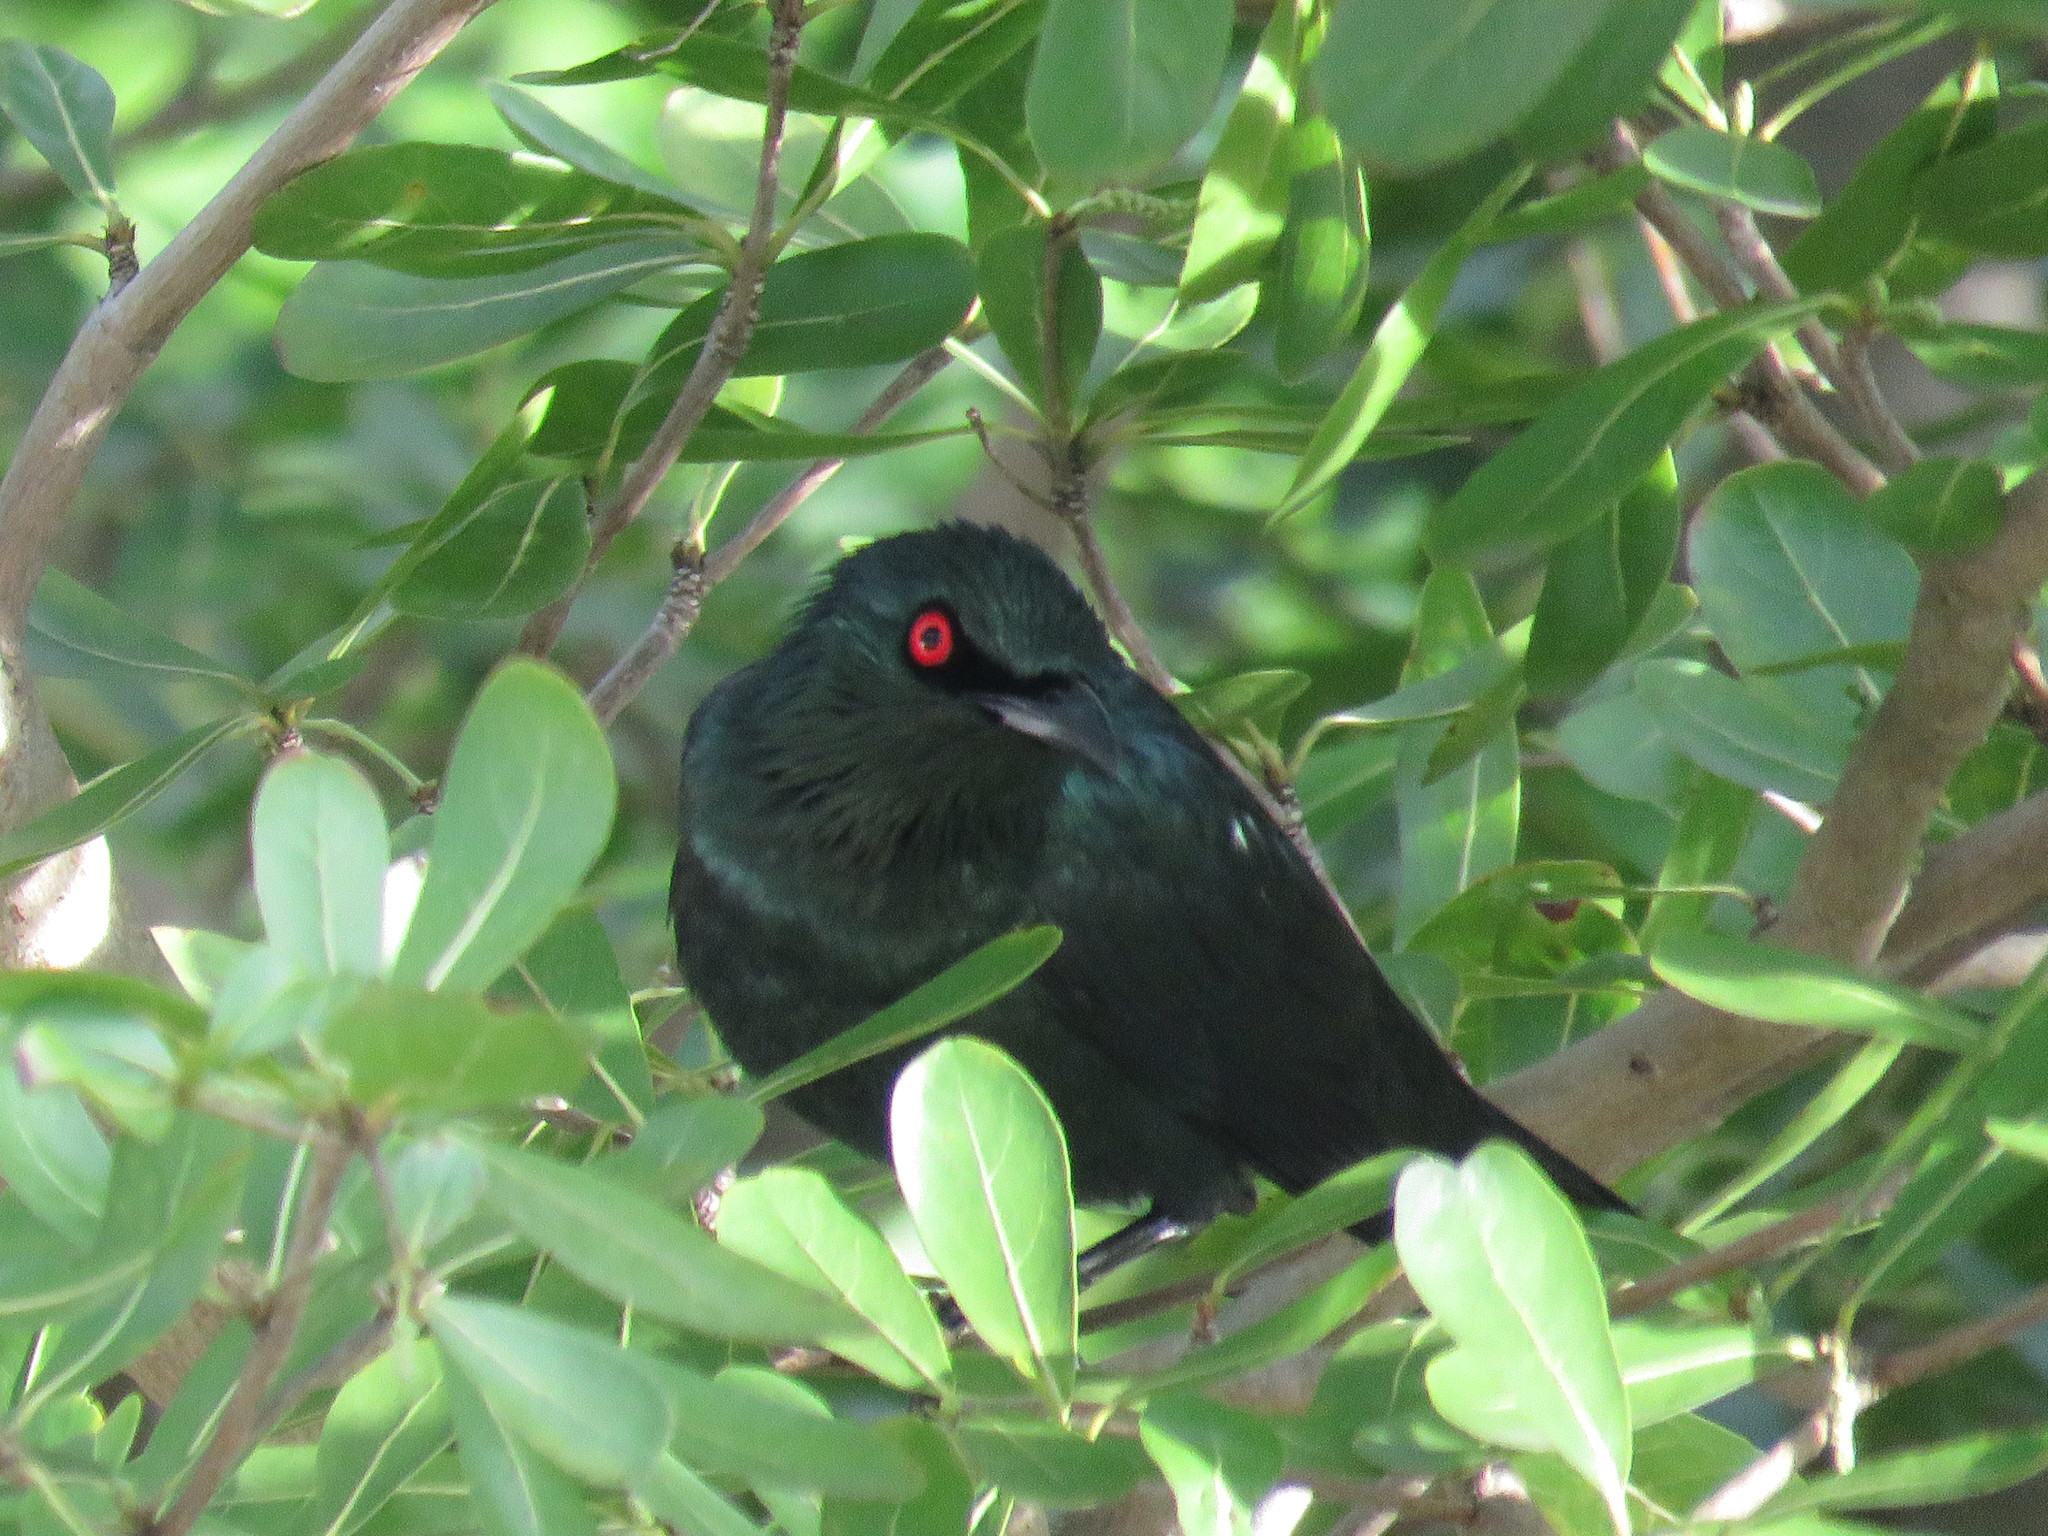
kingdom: Animalia
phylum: Chordata
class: Aves
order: Passeriformes
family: Sturnidae
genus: Aplonis
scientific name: Aplonis panayensis
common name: Asian glossy starling
